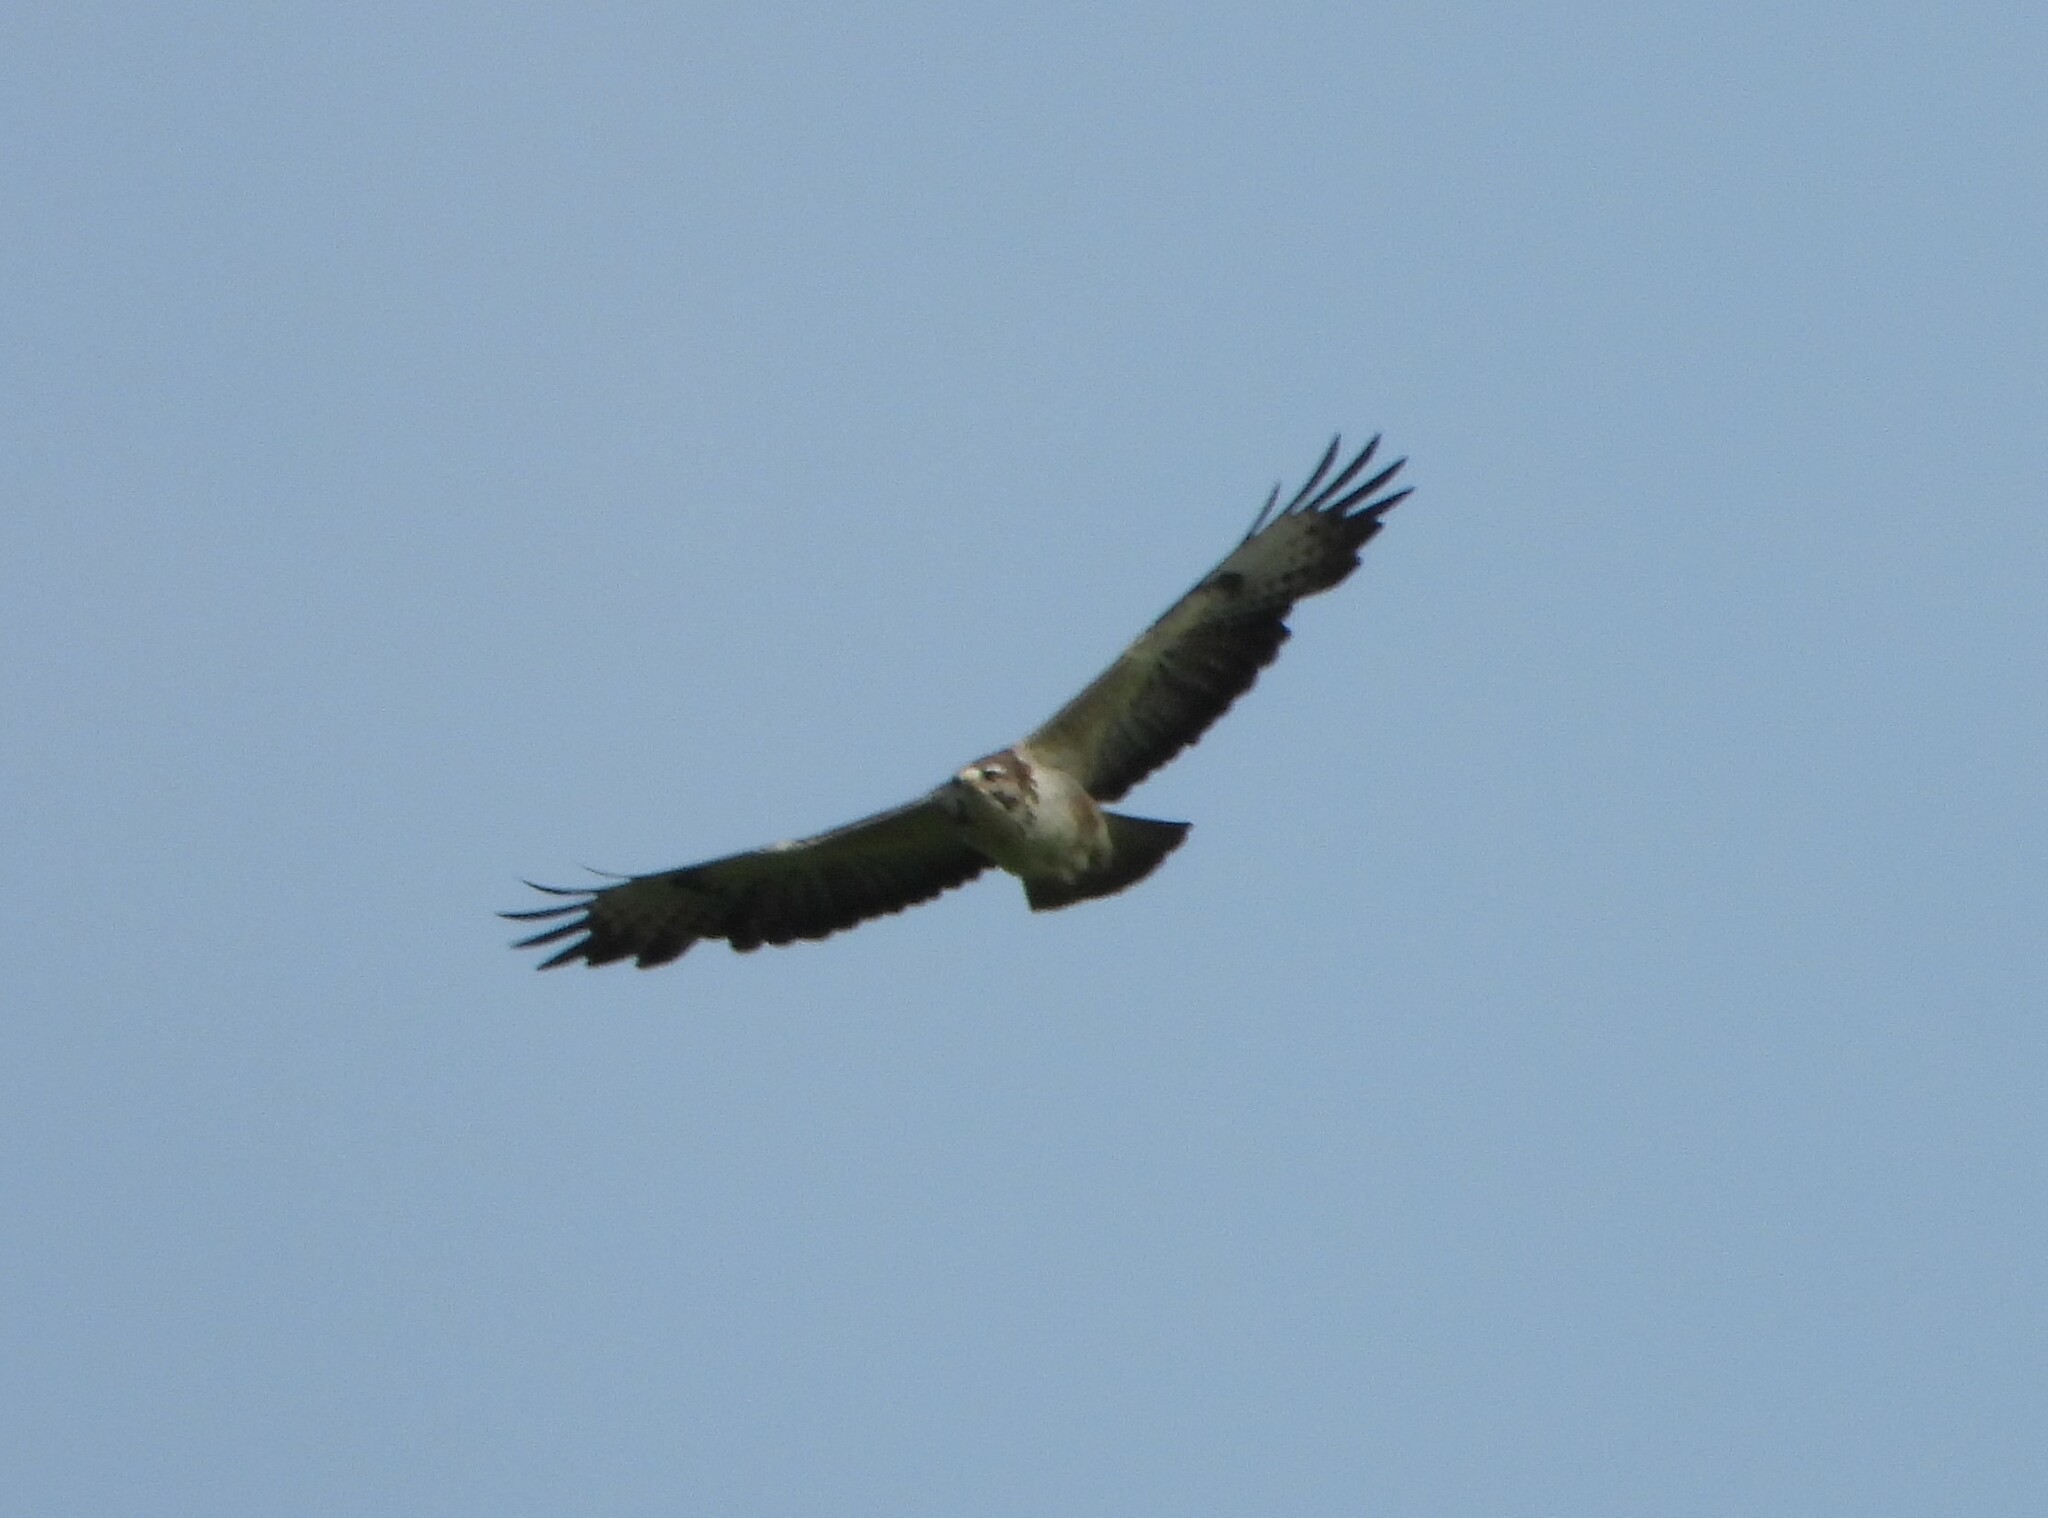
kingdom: Animalia
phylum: Chordata
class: Aves
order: Accipitriformes
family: Accipitridae
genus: Buteo
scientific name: Buteo buteo
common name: Common buzzard
